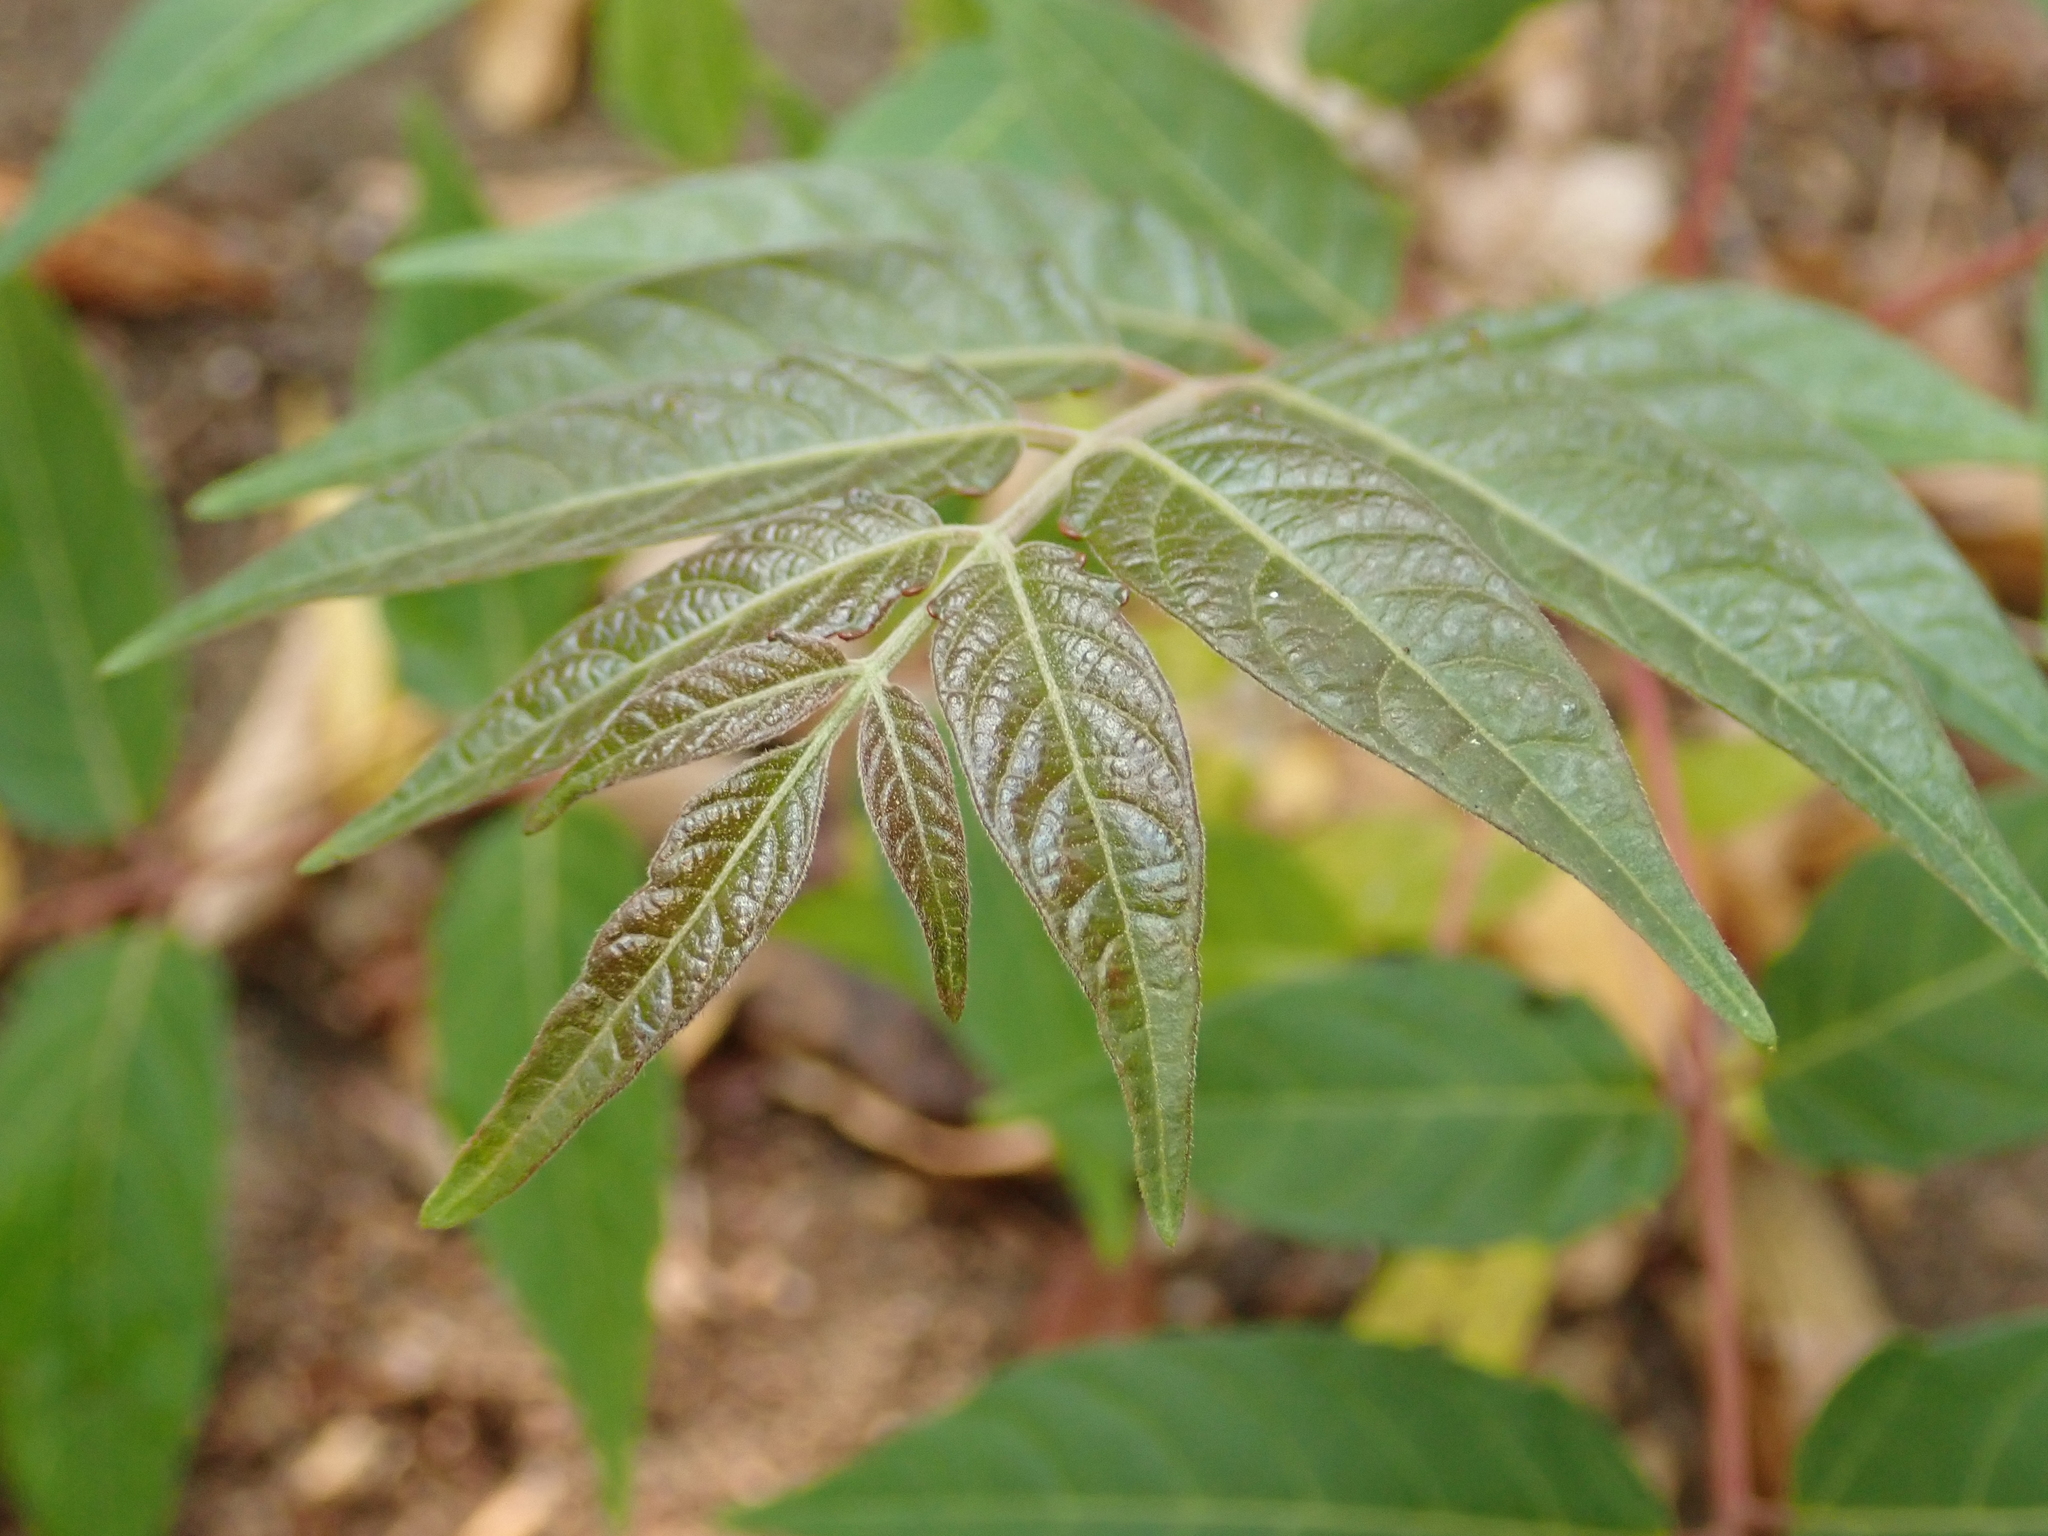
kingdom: Plantae
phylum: Tracheophyta
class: Magnoliopsida
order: Sapindales
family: Simaroubaceae
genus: Ailanthus
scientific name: Ailanthus altissima
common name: Tree-of-heaven
